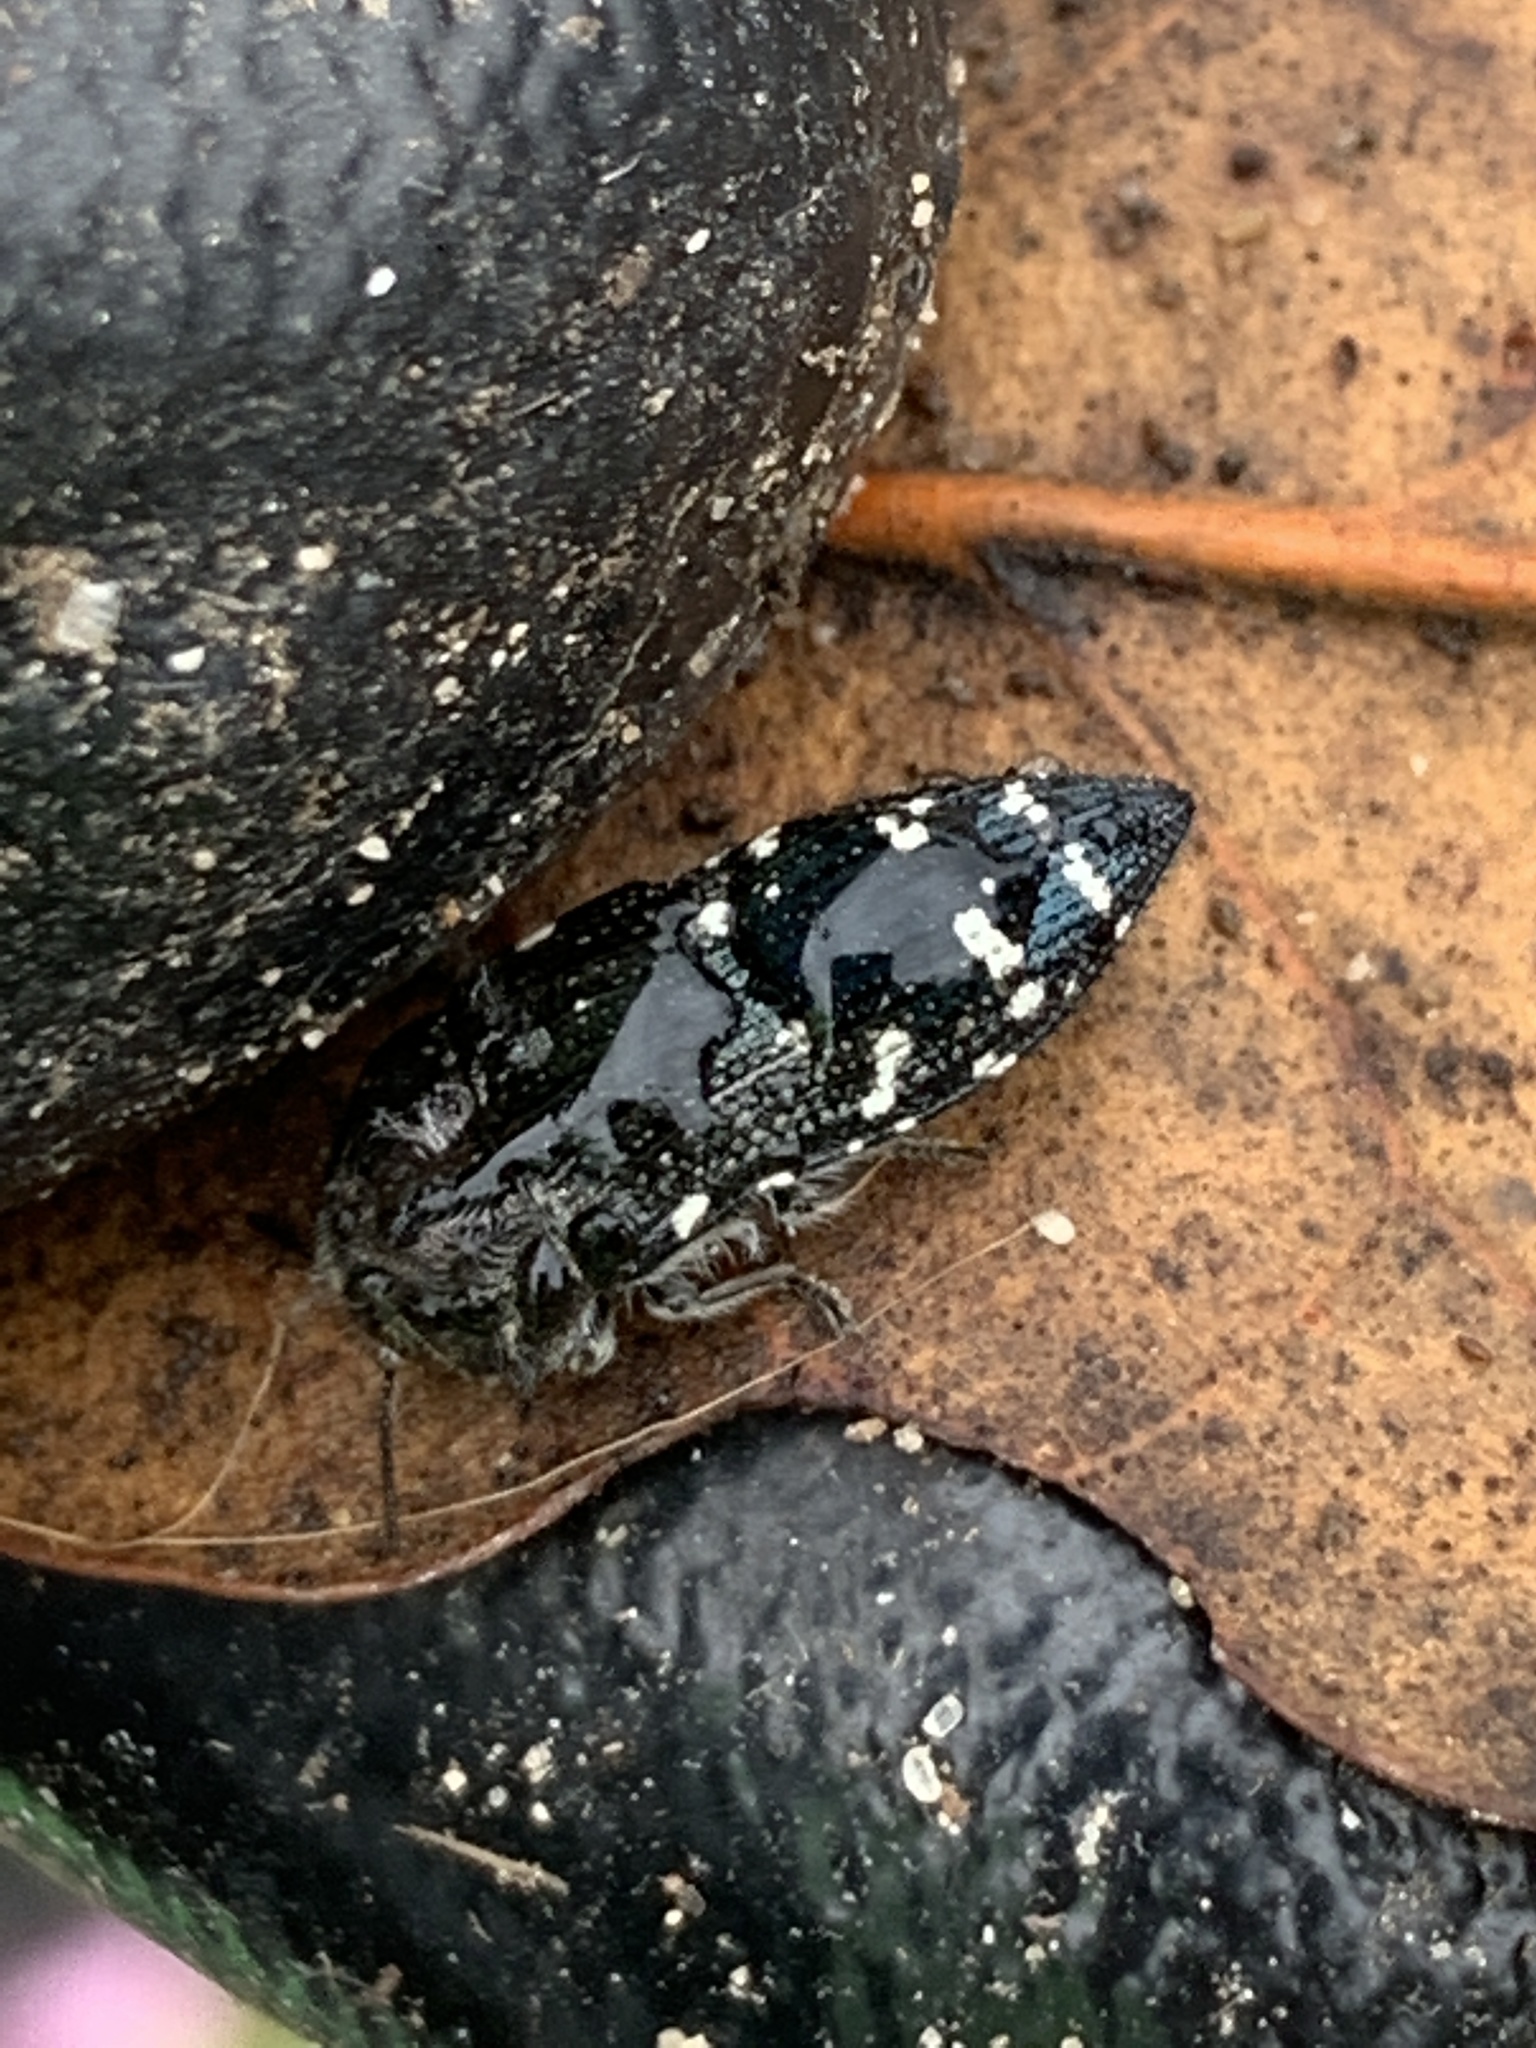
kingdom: Animalia
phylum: Arthropoda
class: Insecta
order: Coleoptera
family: Buprestidae
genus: Acmaeodera
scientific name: Acmaeodera ornatoides
